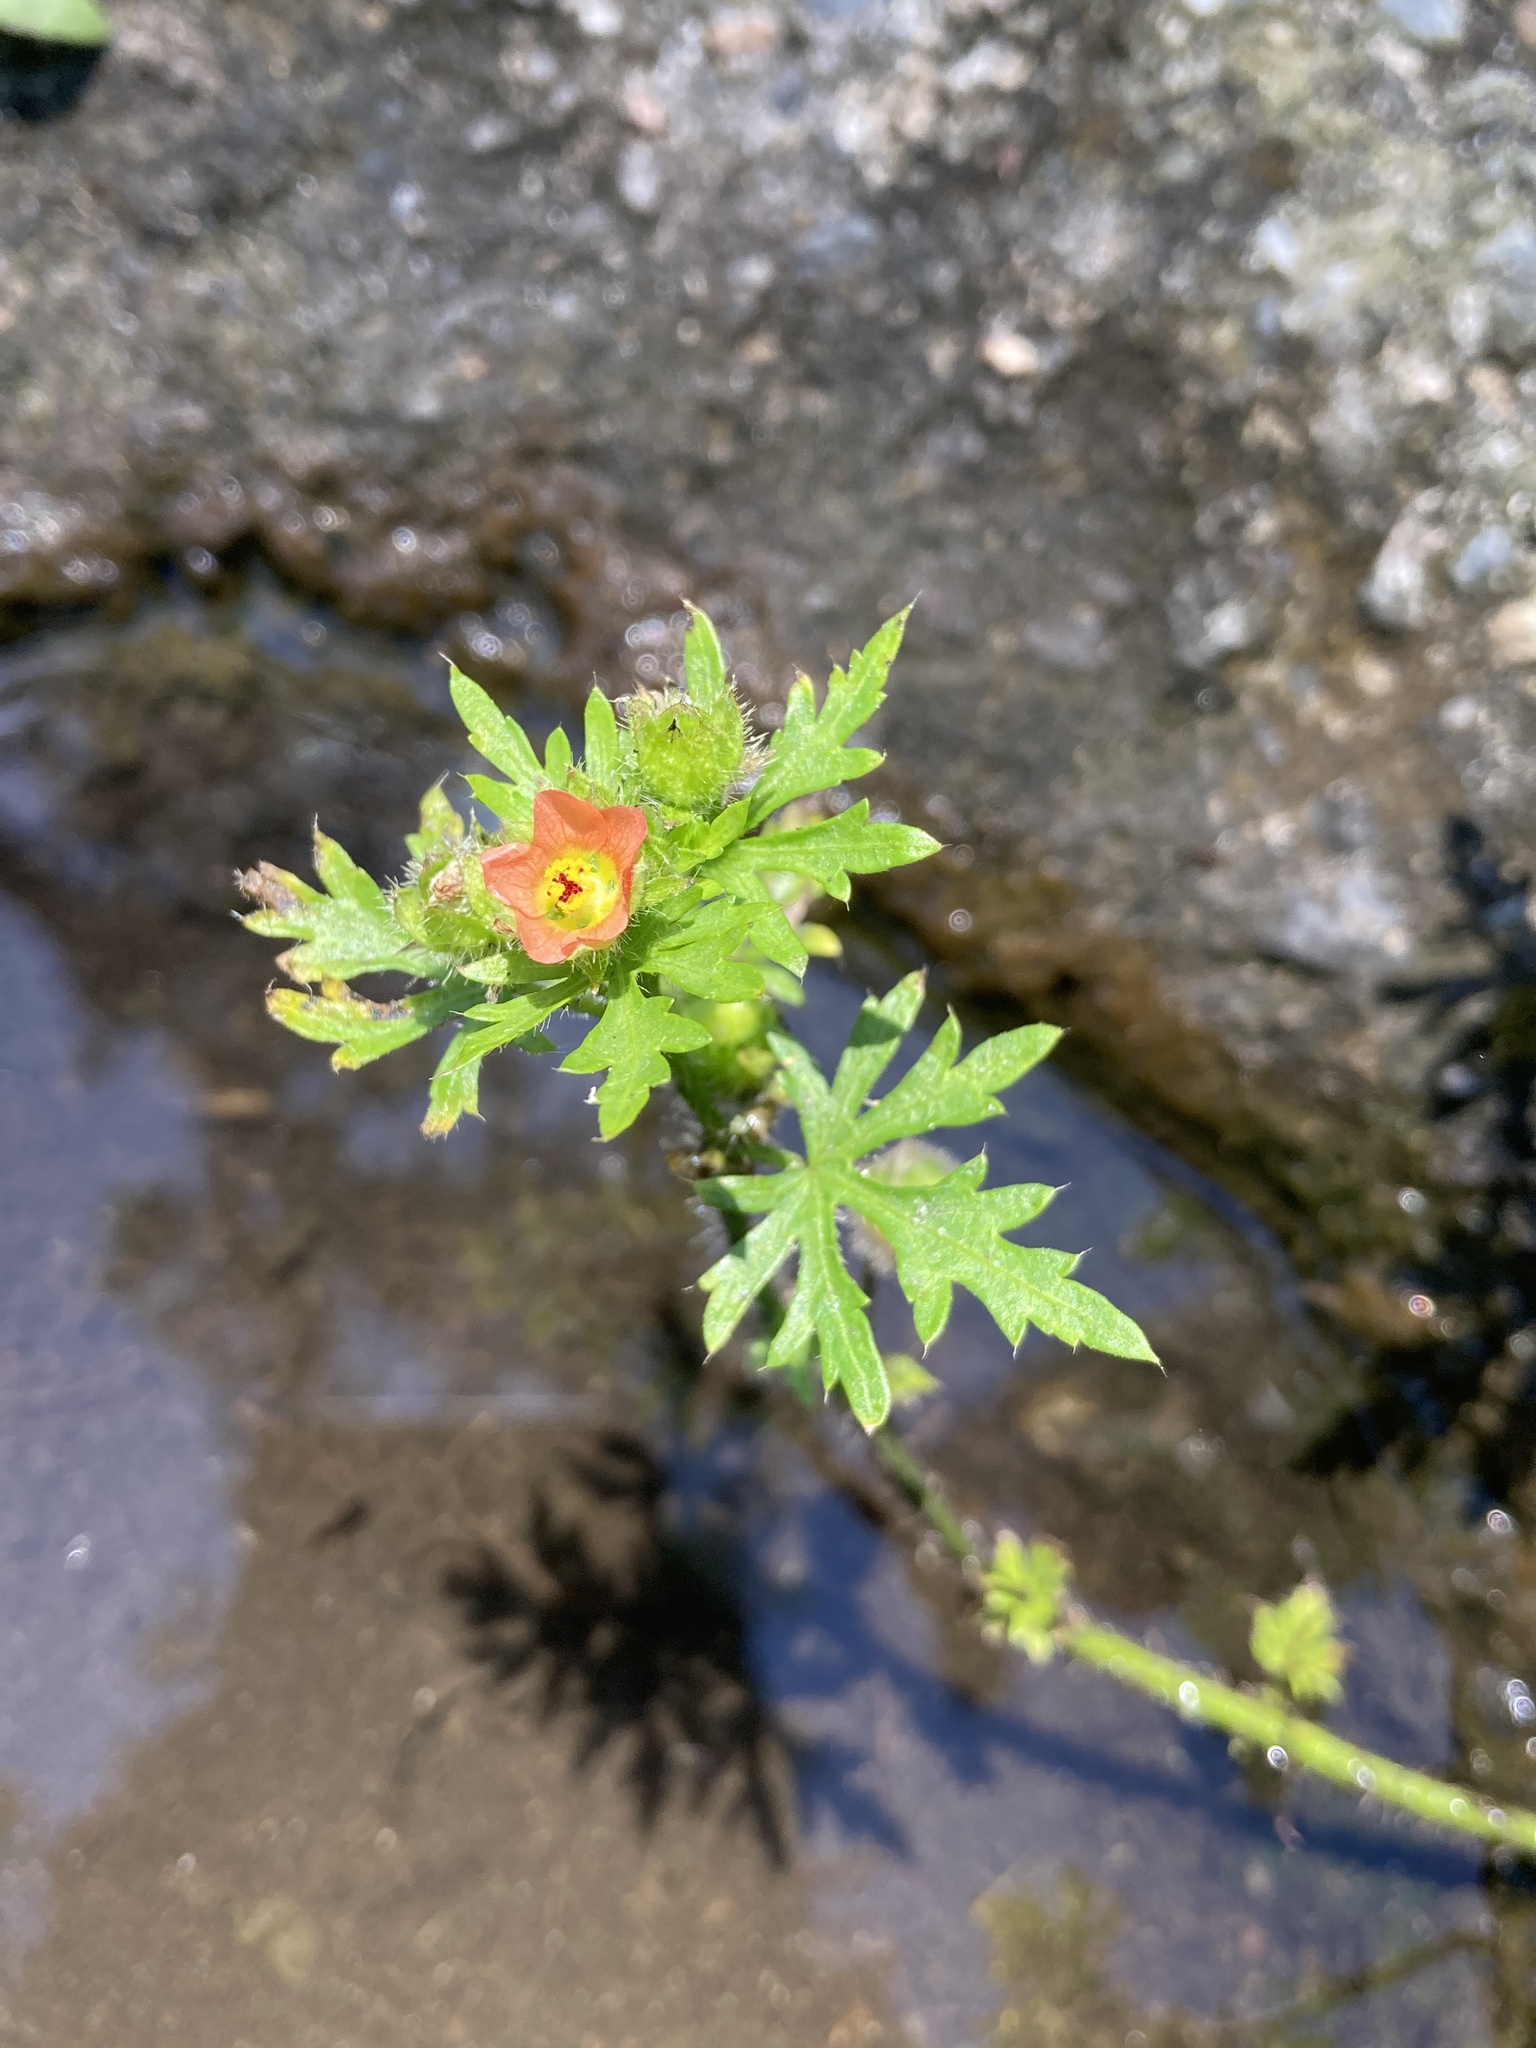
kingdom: Plantae
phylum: Tracheophyta
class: Magnoliopsida
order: Malvales
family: Malvaceae
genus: Modiola
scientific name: Modiola caroliniana
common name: Carolina bristlemallow
